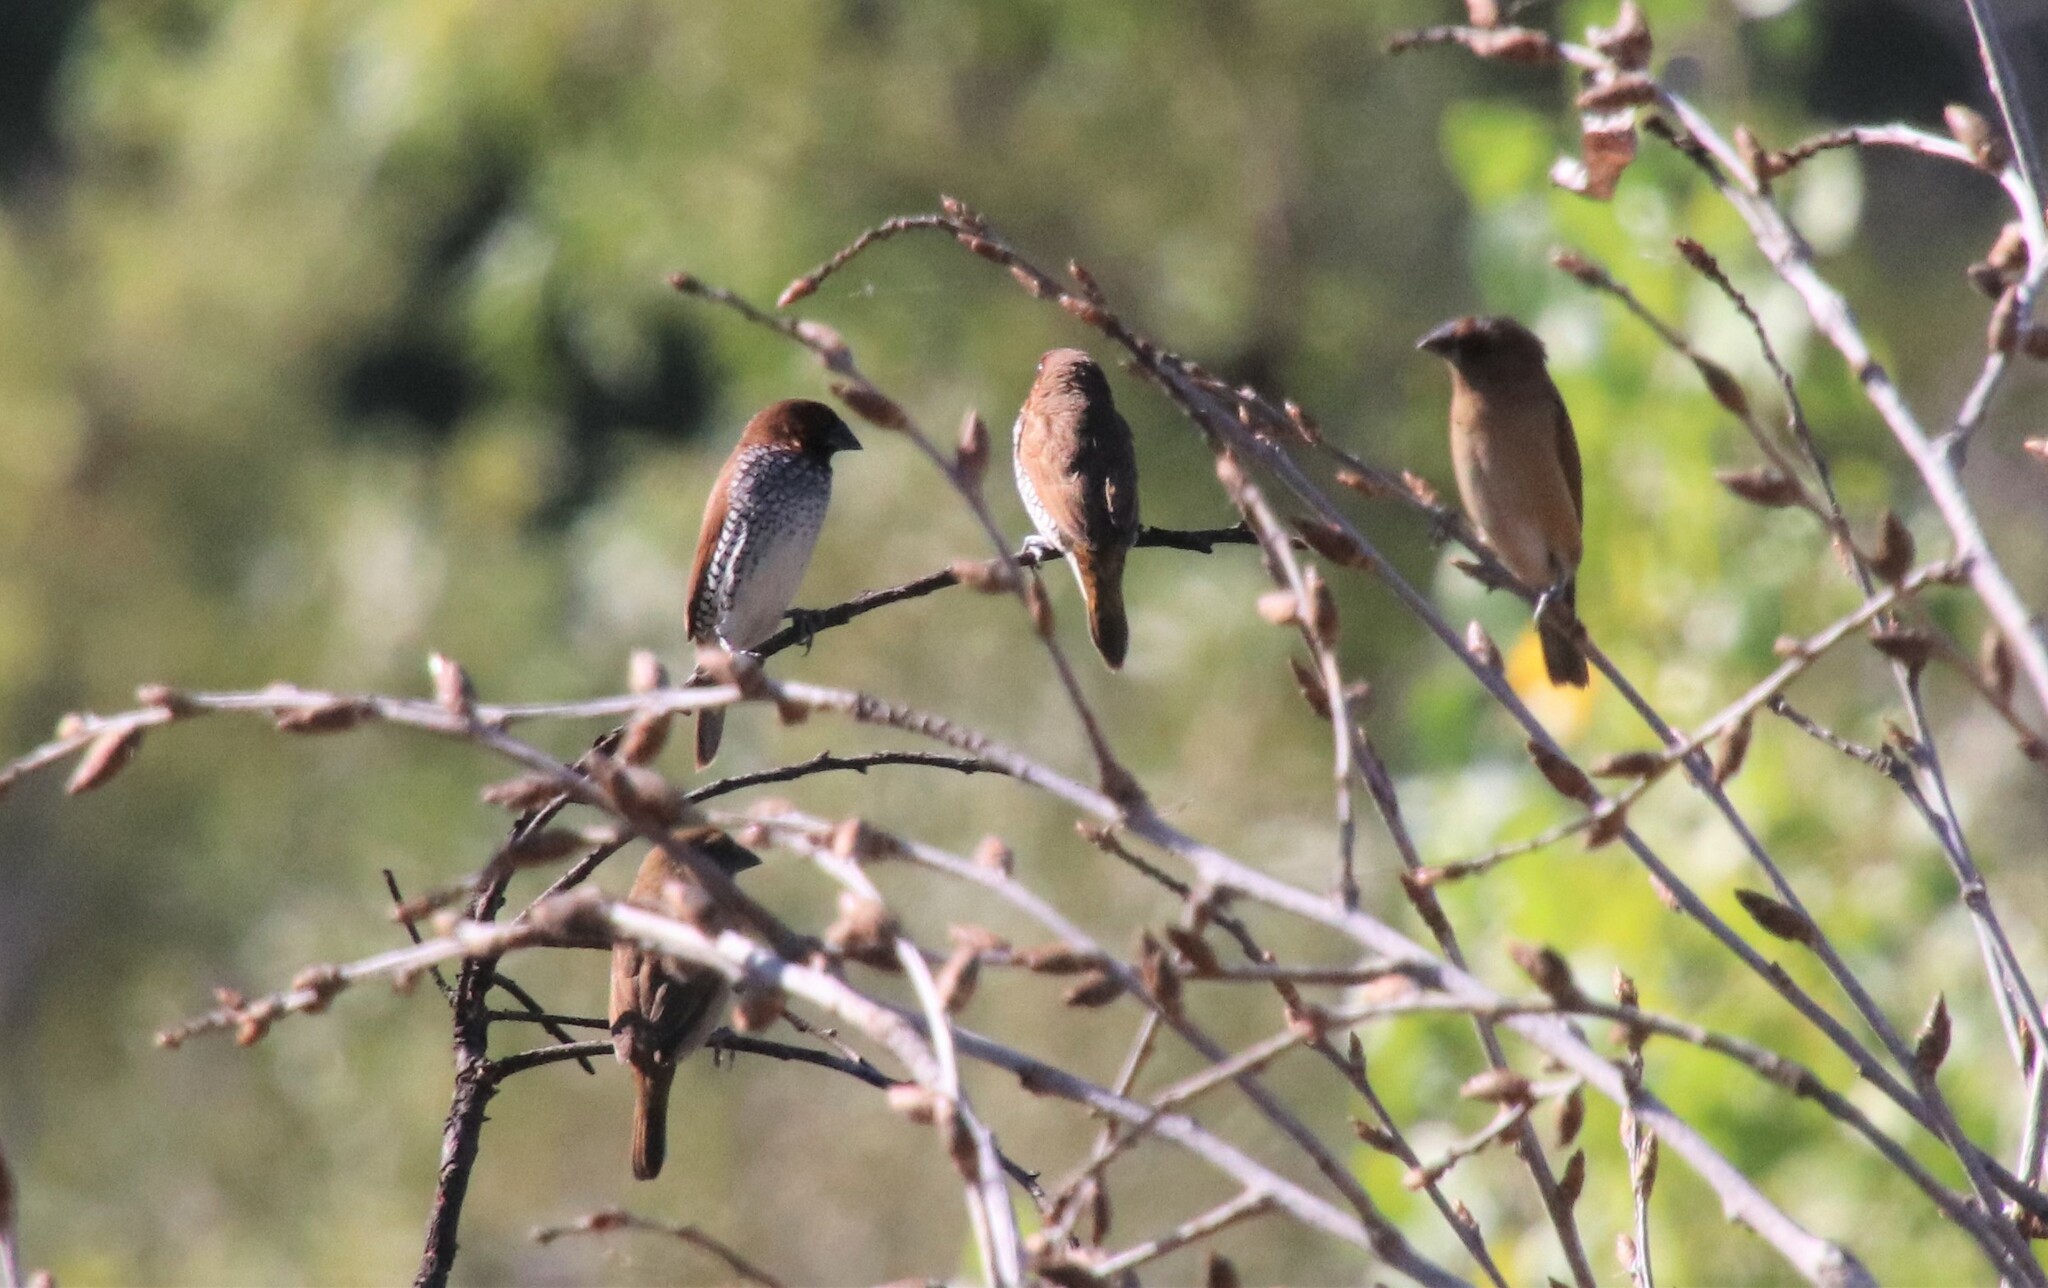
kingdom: Animalia
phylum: Chordata
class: Aves
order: Passeriformes
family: Estrildidae
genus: Lonchura
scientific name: Lonchura punctulata
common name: Scaly-breasted munia
